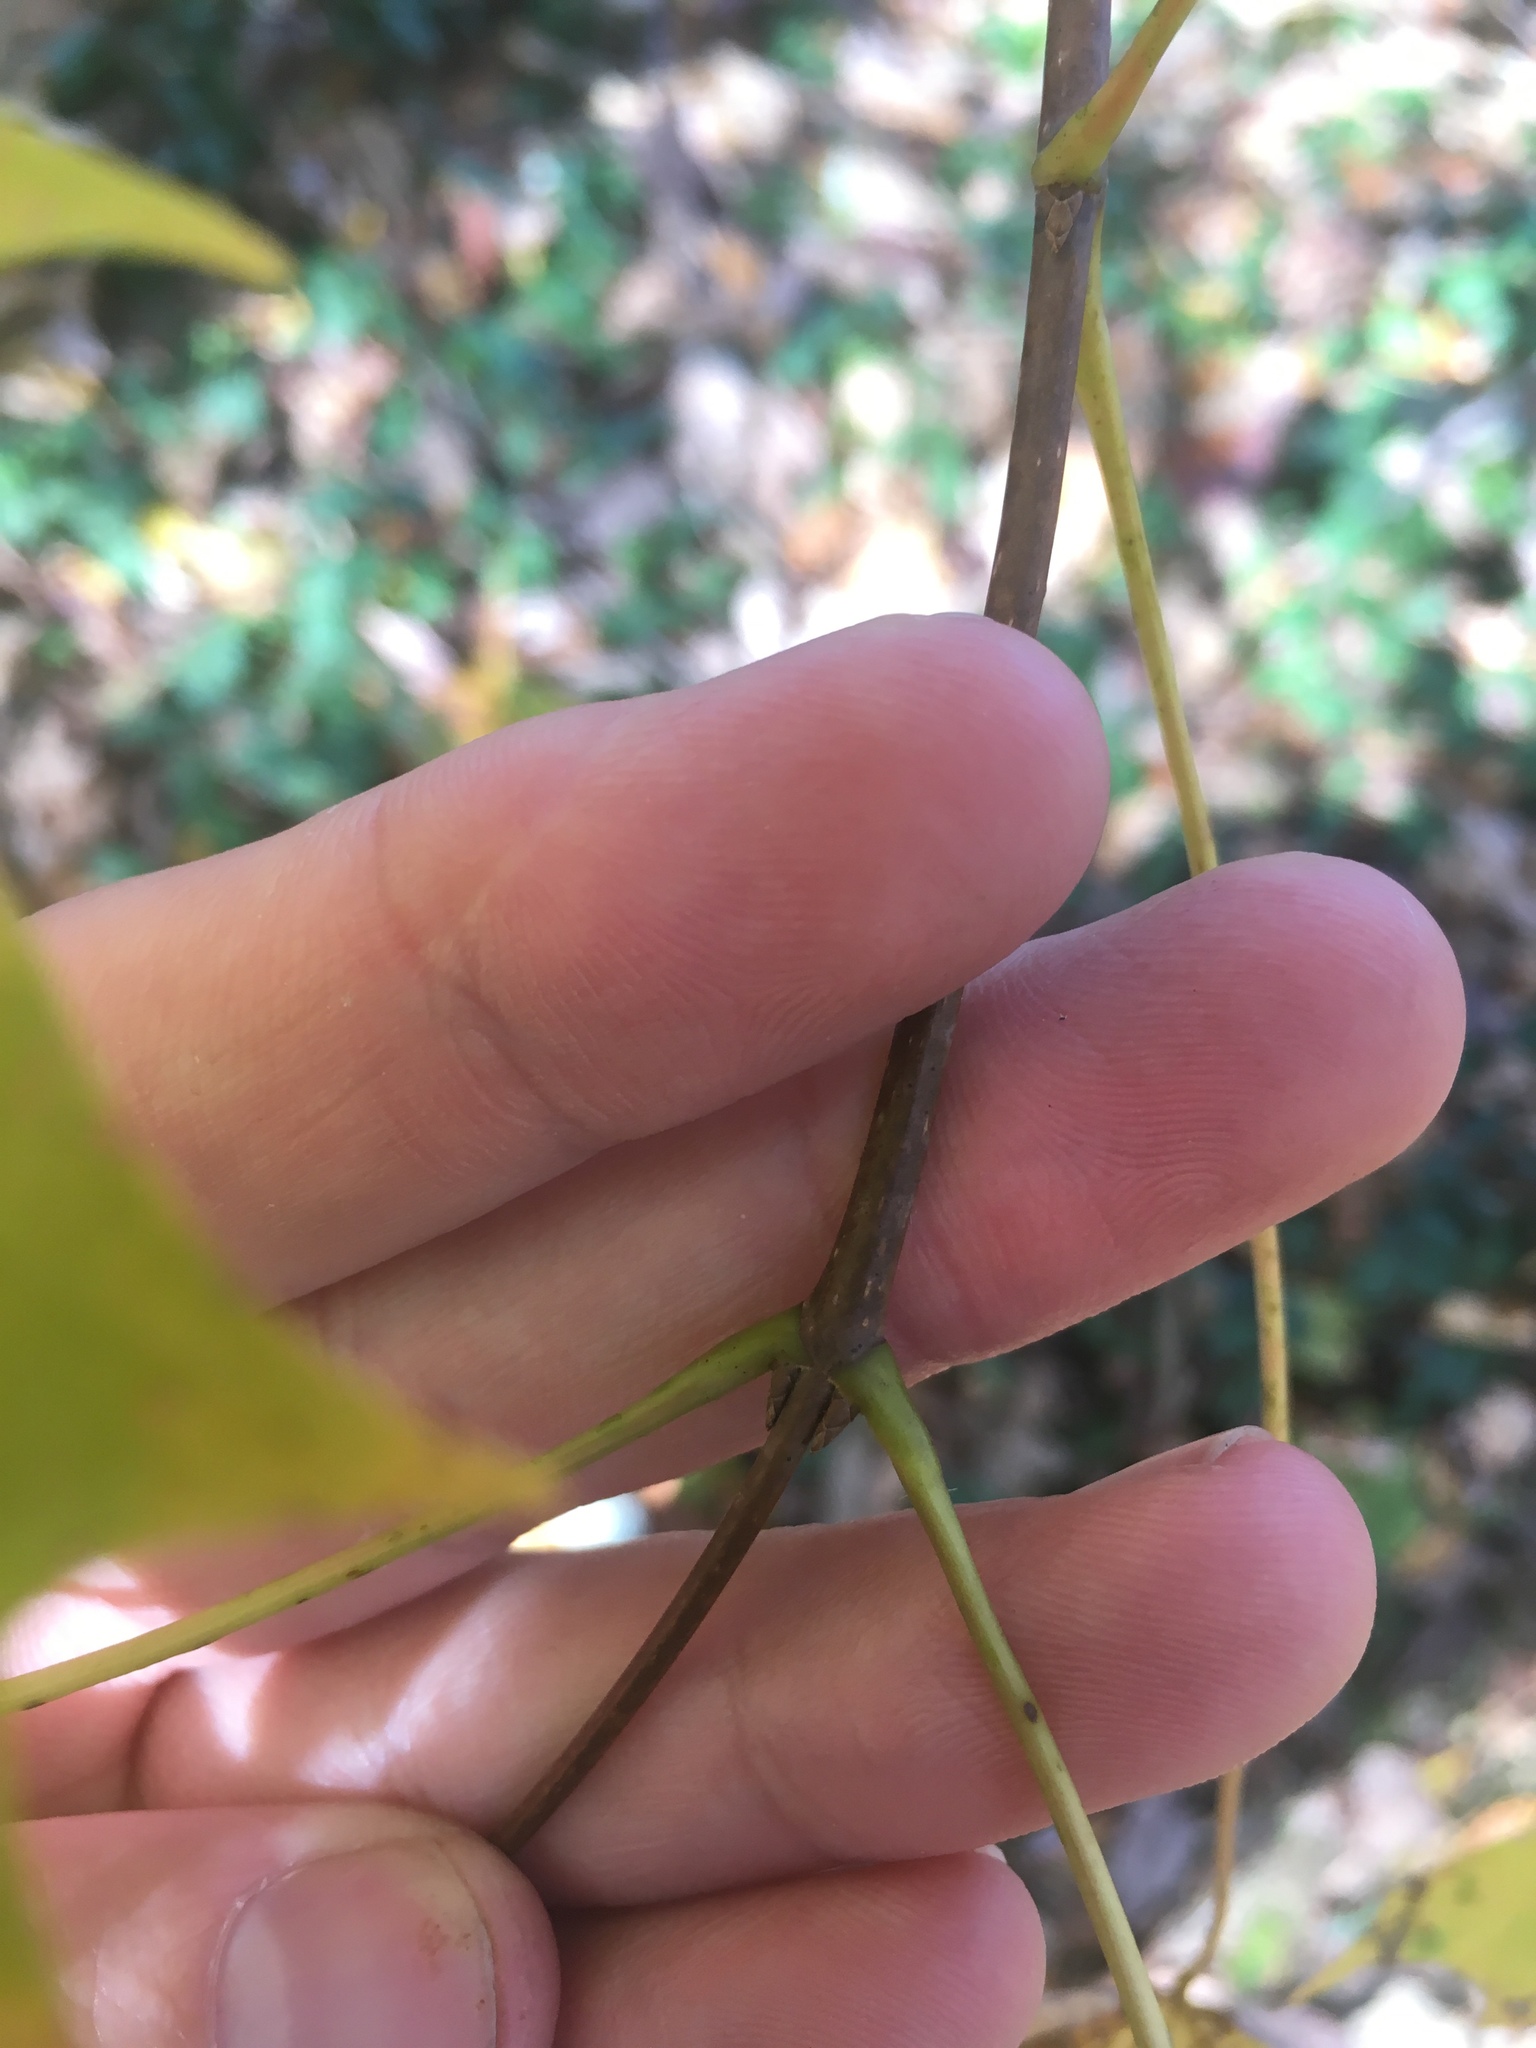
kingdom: Plantae
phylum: Tracheophyta
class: Magnoliopsida
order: Sapindales
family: Sapindaceae
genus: Acer
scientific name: Acer saccharum
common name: Sugar maple
